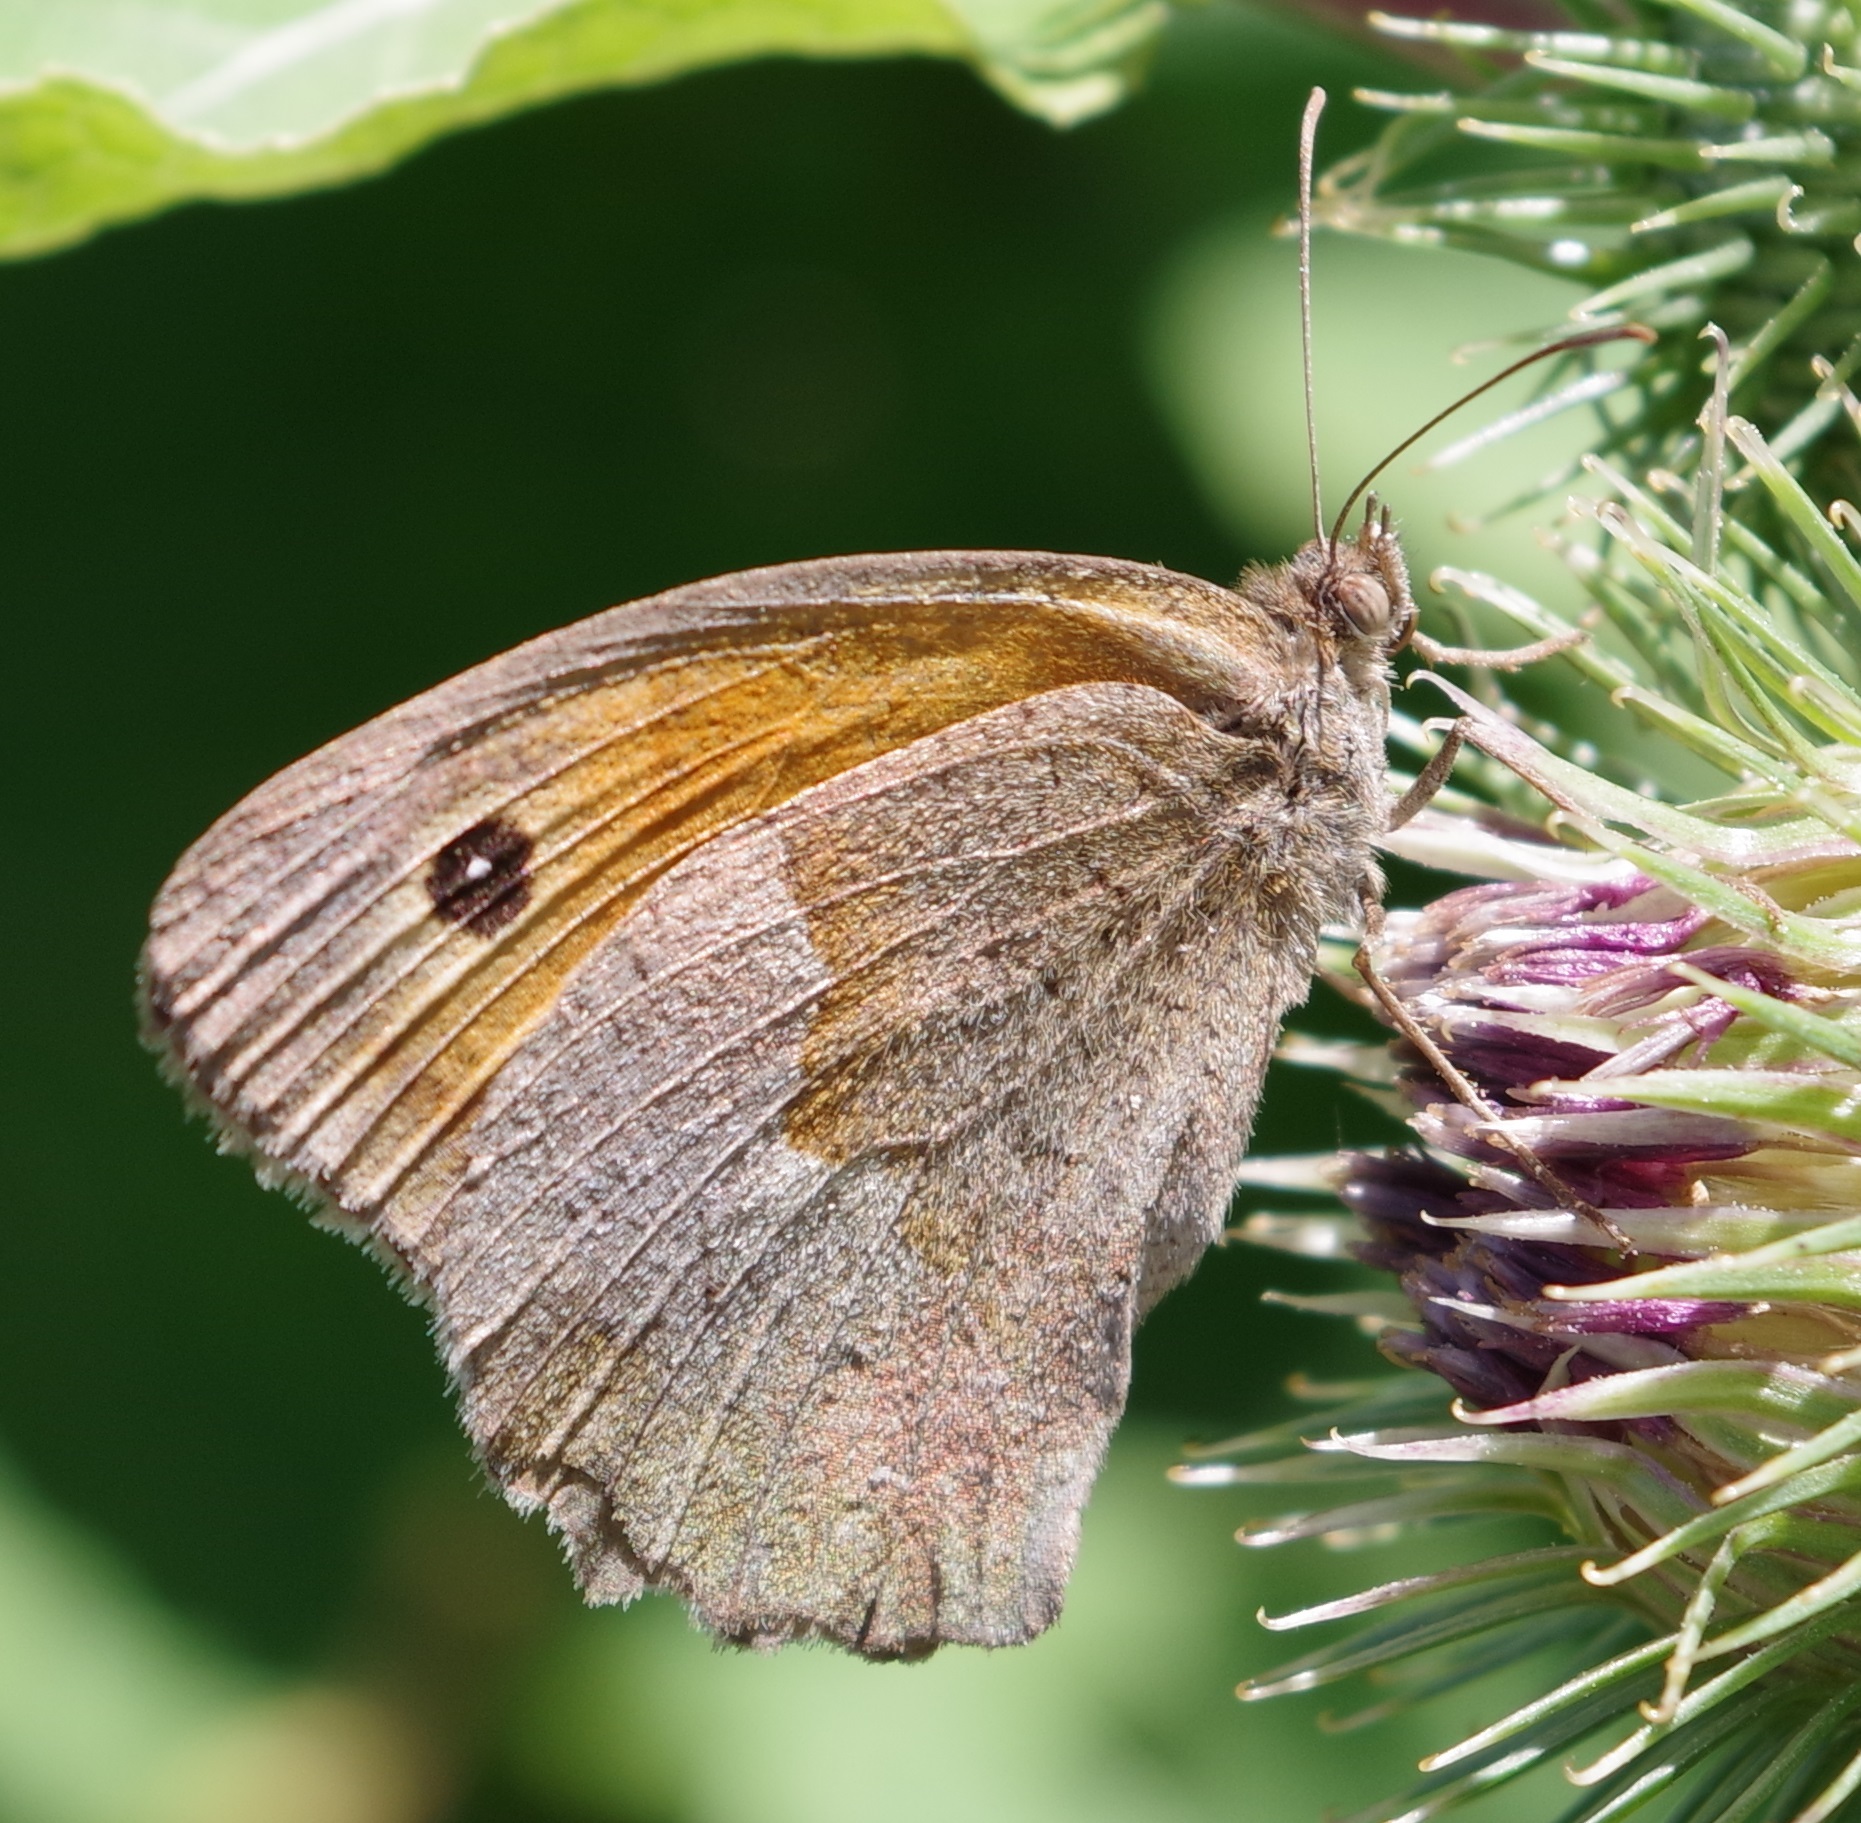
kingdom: Animalia
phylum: Arthropoda
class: Insecta
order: Lepidoptera
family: Nymphalidae
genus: Maniola
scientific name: Maniola jurtina
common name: Meadow brown
